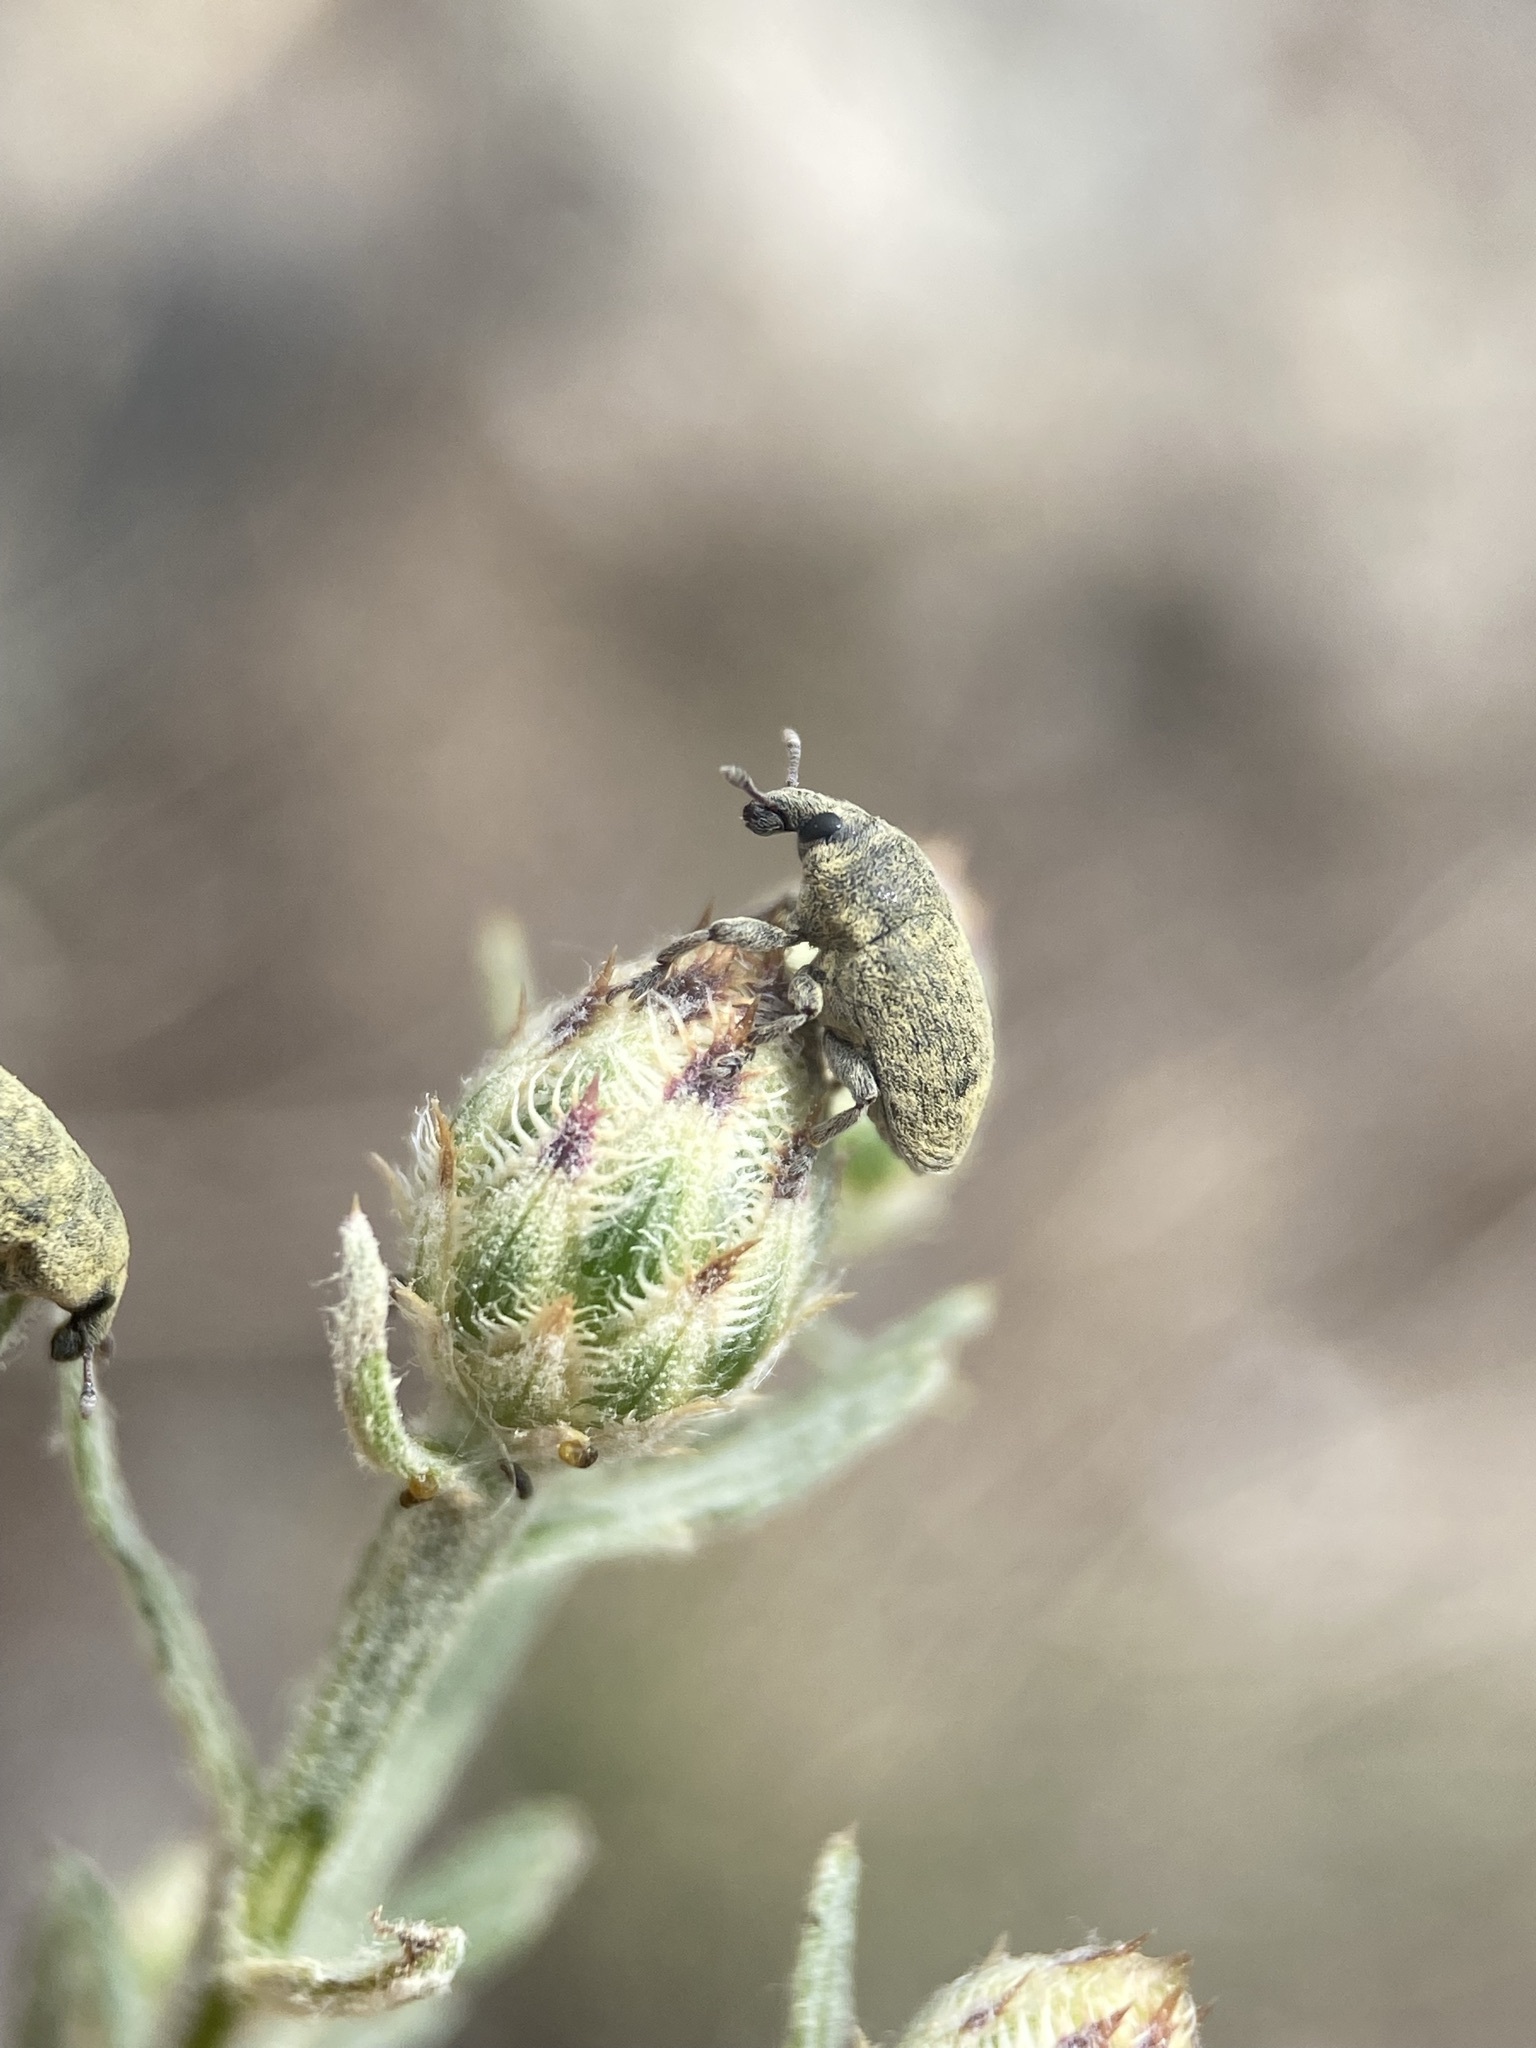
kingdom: Animalia
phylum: Arthropoda
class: Insecta
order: Coleoptera
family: Curculionidae
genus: Larinus
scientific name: Larinus minutus
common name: Weevil
